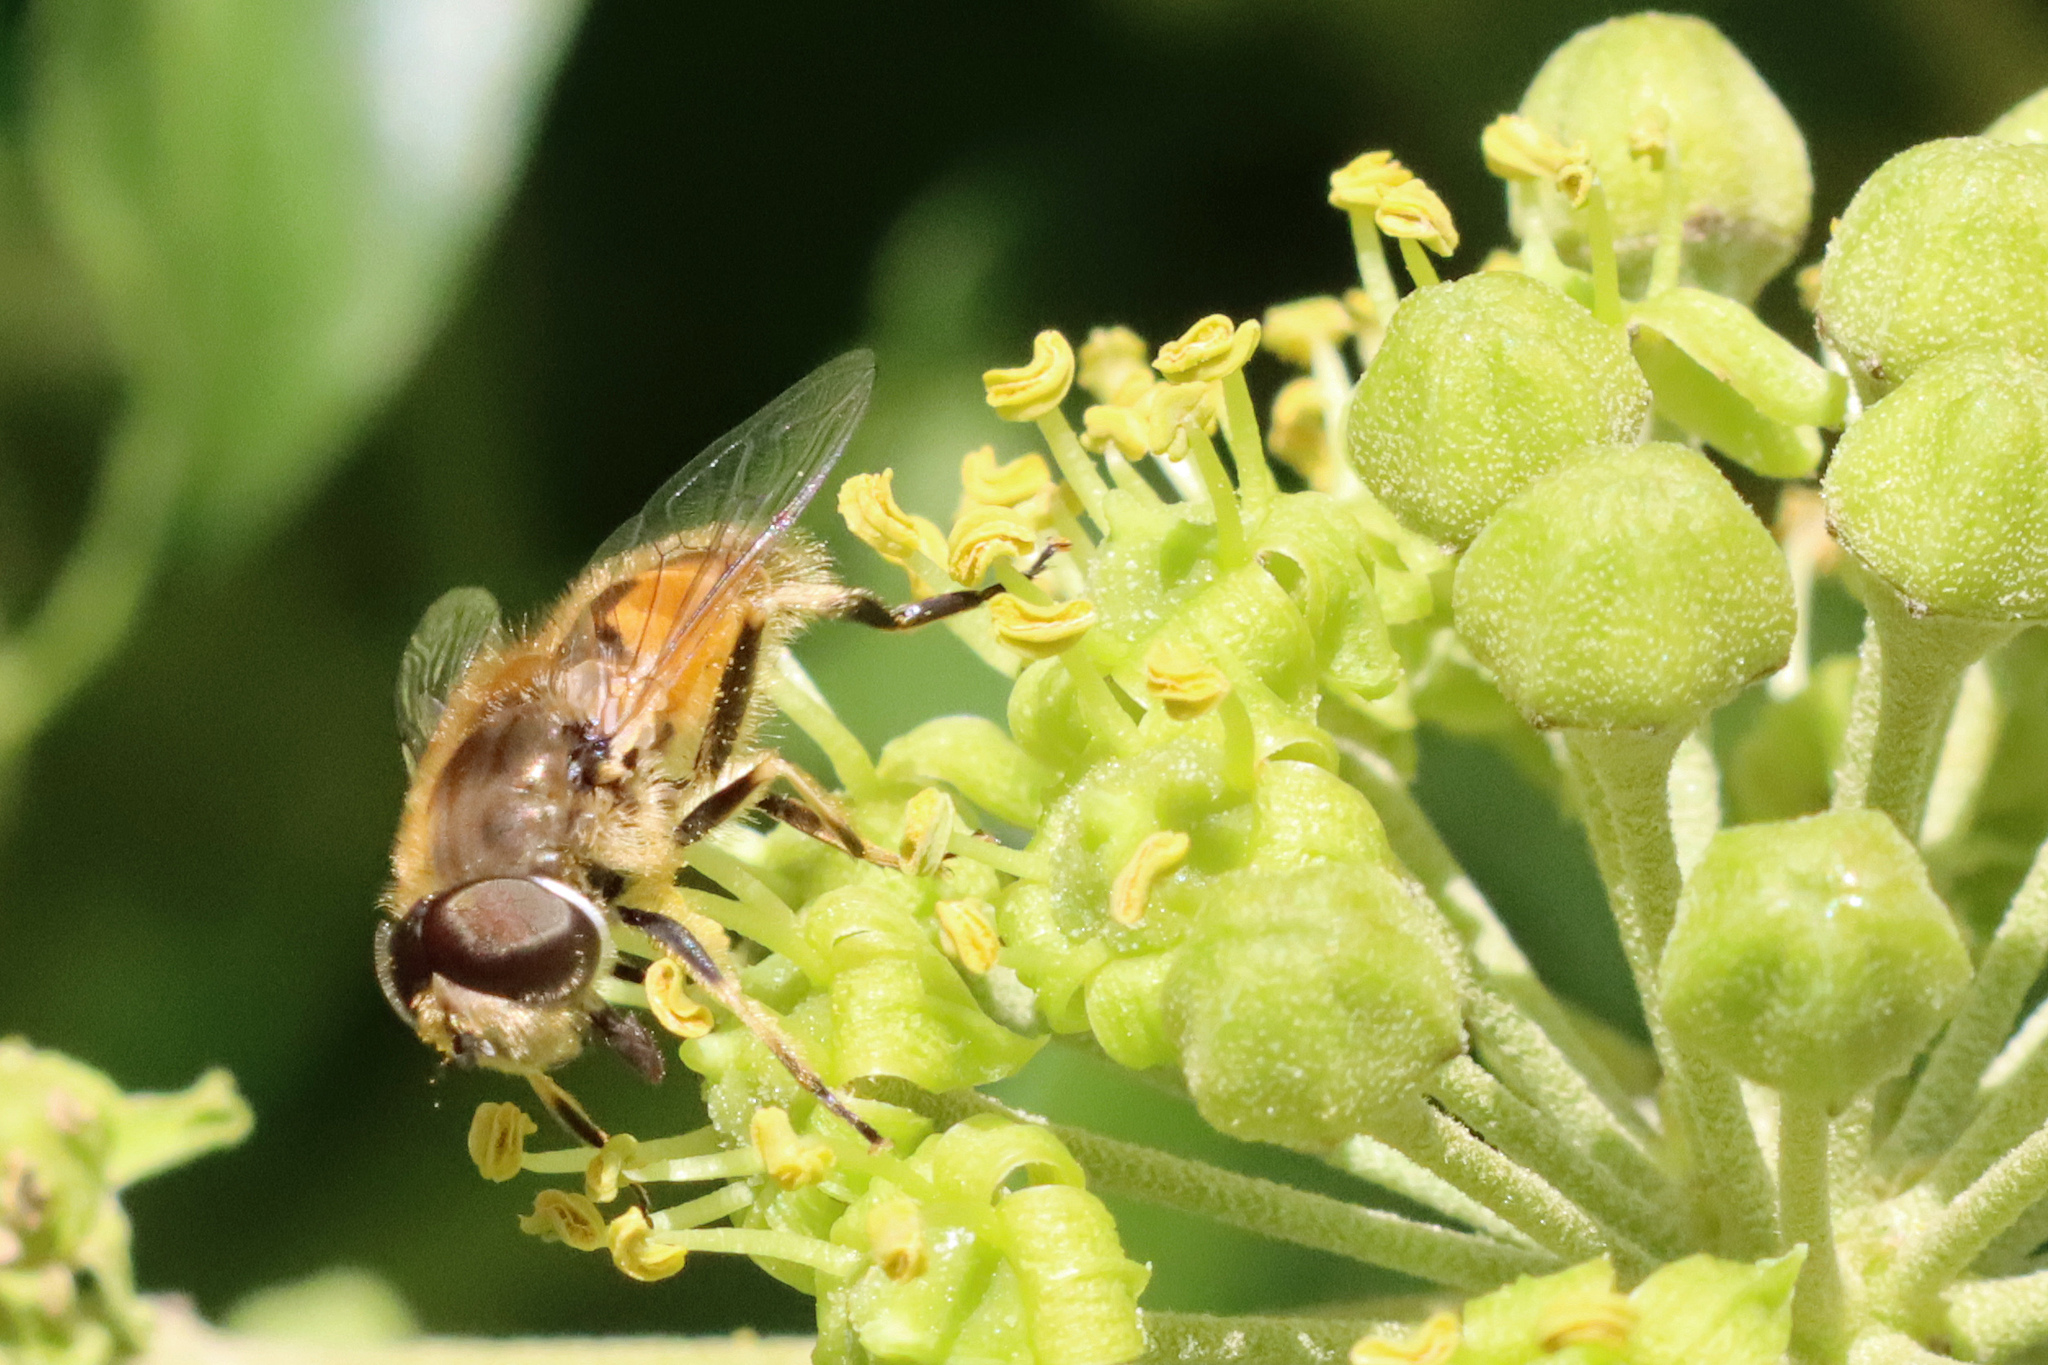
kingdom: Animalia
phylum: Arthropoda
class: Insecta
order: Diptera
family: Syrphidae
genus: Eristalis
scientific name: Eristalis arbustorum
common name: Hover fly
